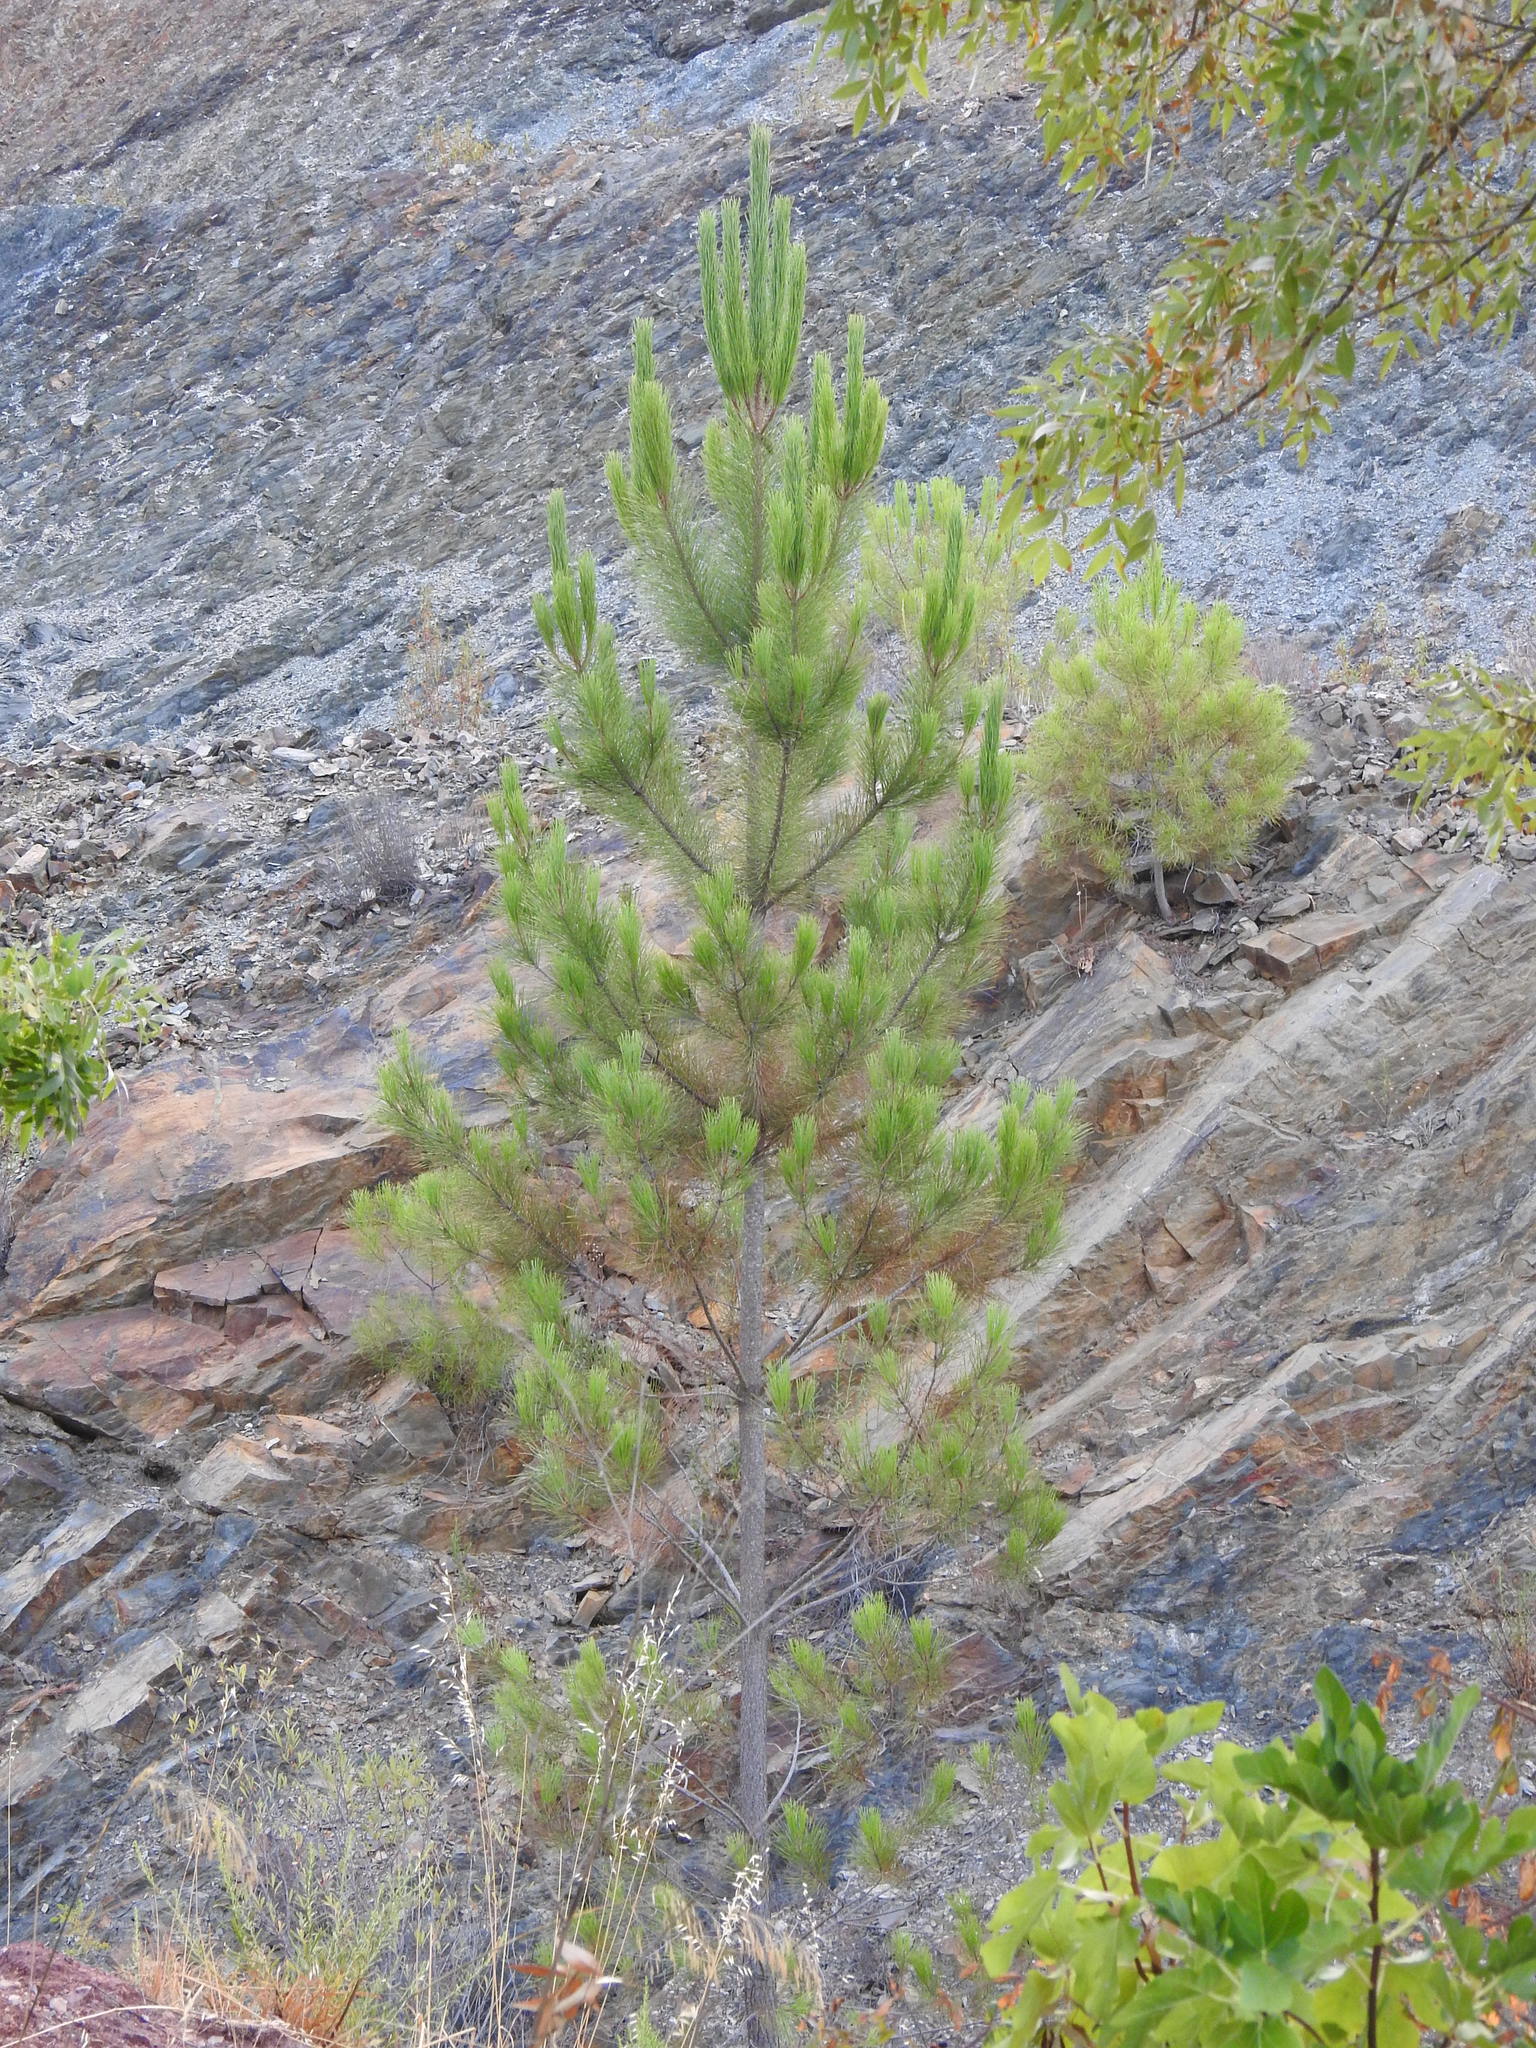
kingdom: Plantae
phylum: Tracheophyta
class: Pinopsida
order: Pinales
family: Pinaceae
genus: Pinus
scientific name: Pinus pinaster
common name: Maritime pine
